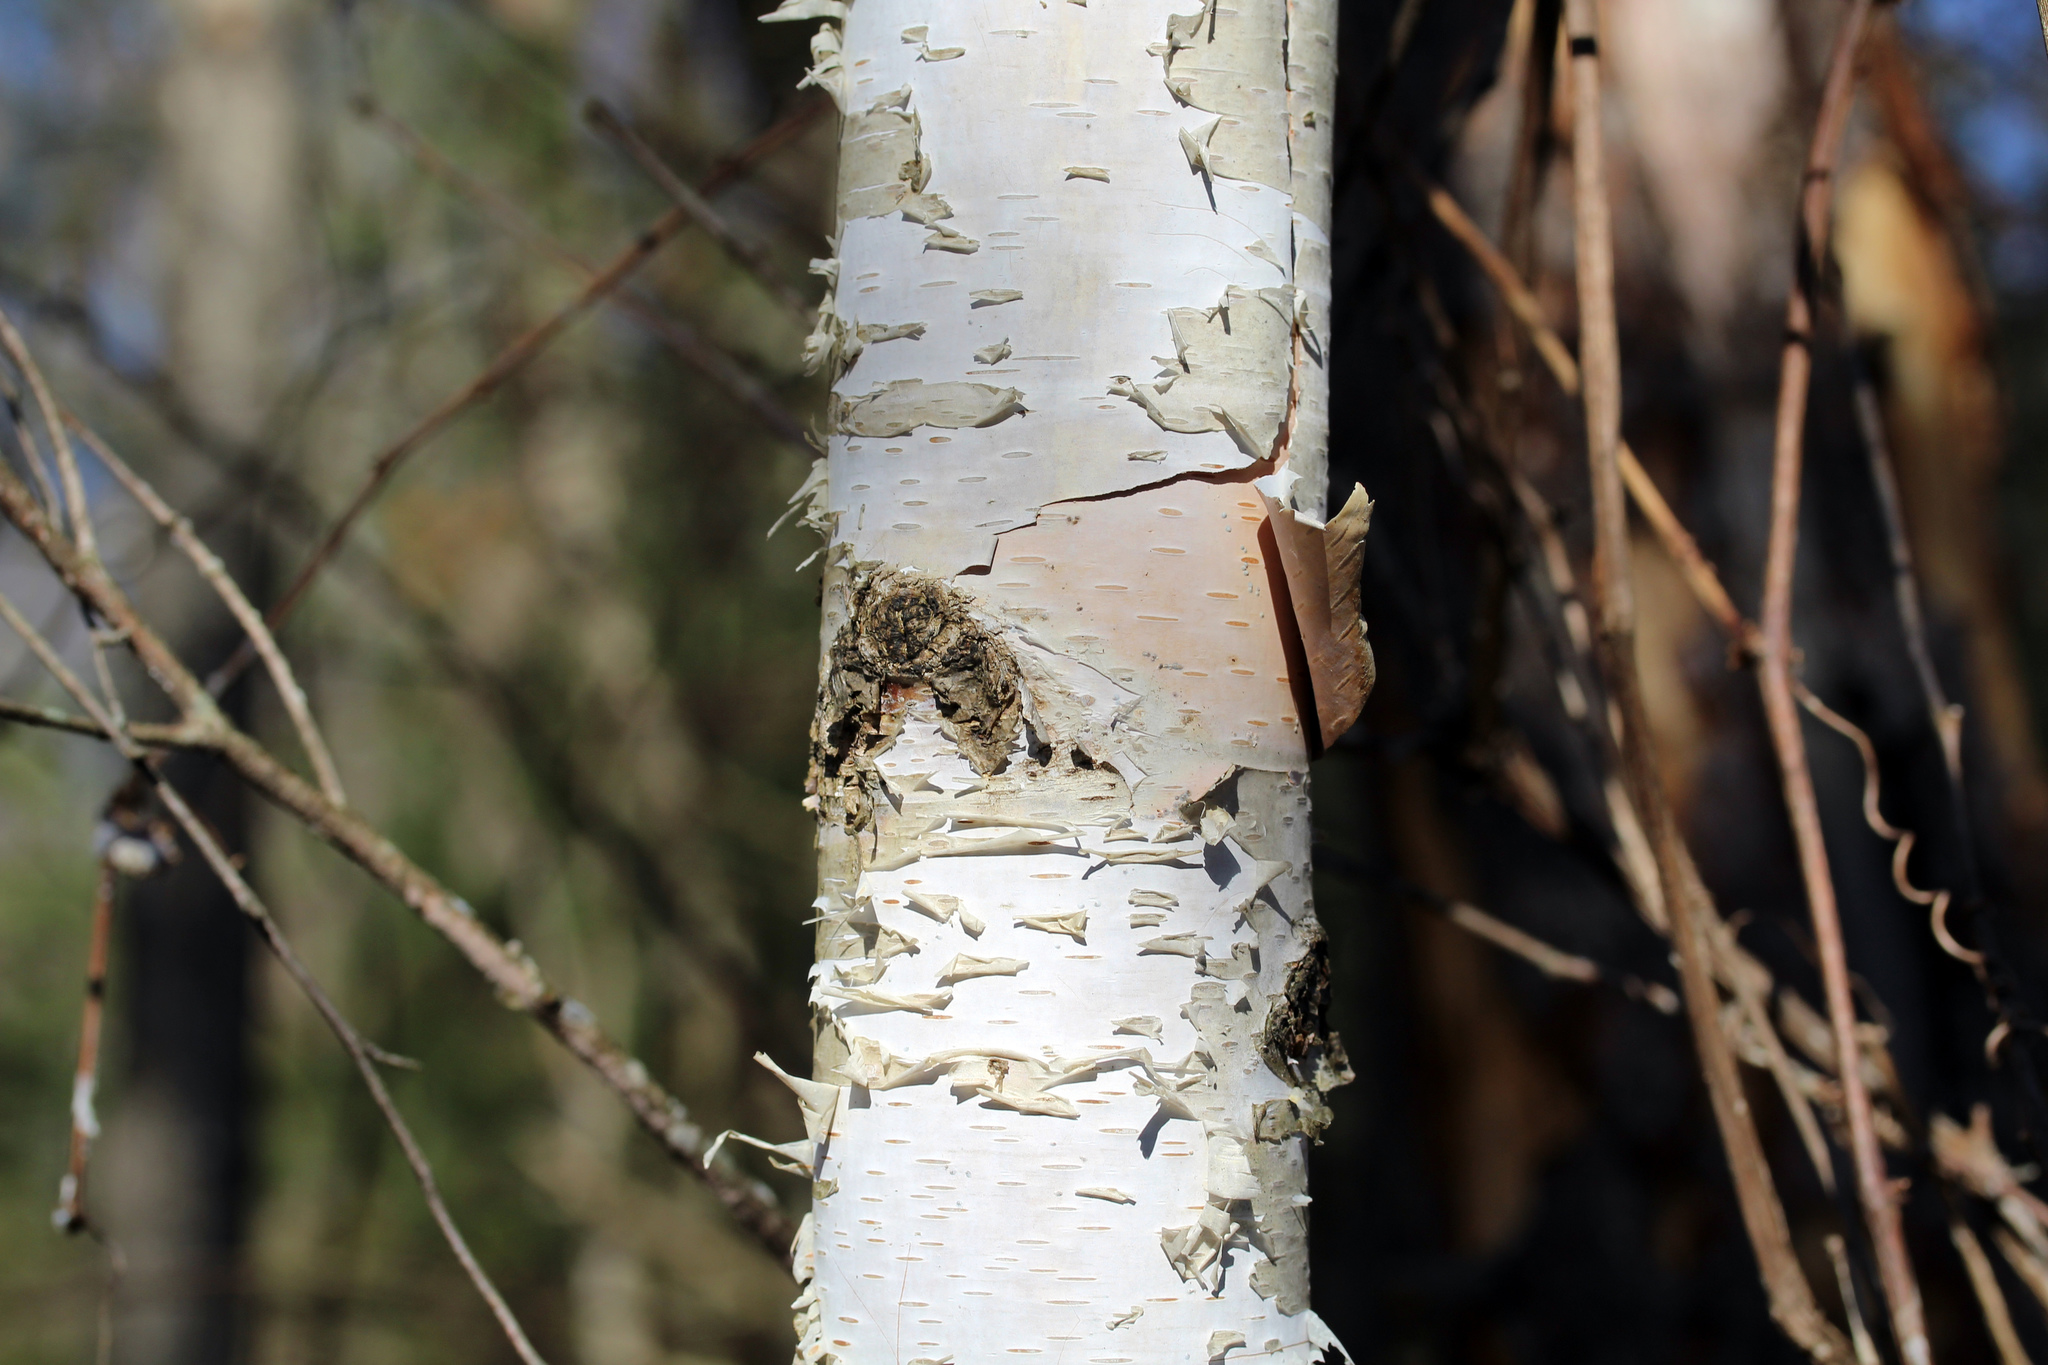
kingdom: Plantae
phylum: Tracheophyta
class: Magnoliopsida
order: Fagales
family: Betulaceae
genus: Betula
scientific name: Betula papyrifera
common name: Paper birch
